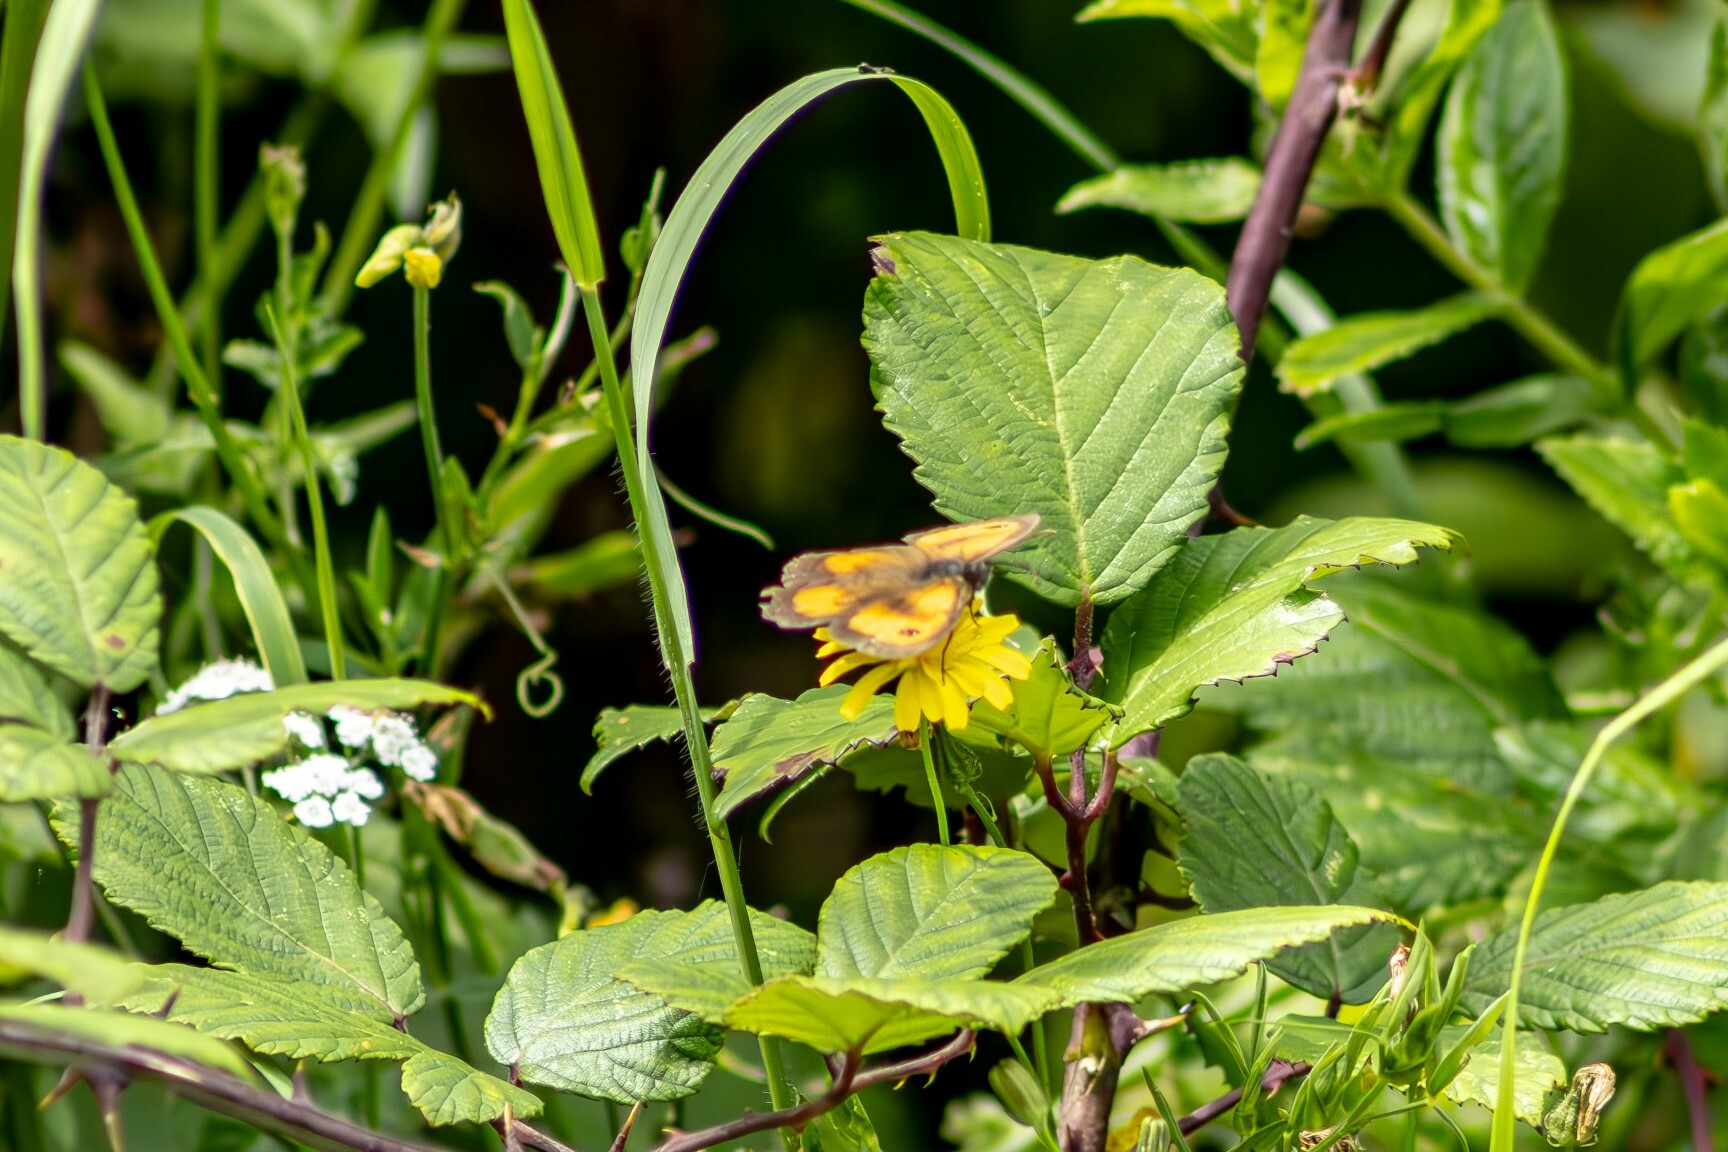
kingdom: Animalia
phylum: Arthropoda
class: Insecta
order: Lepidoptera
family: Nymphalidae
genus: Pyronia
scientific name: Pyronia tithonus
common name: Gatekeeper
